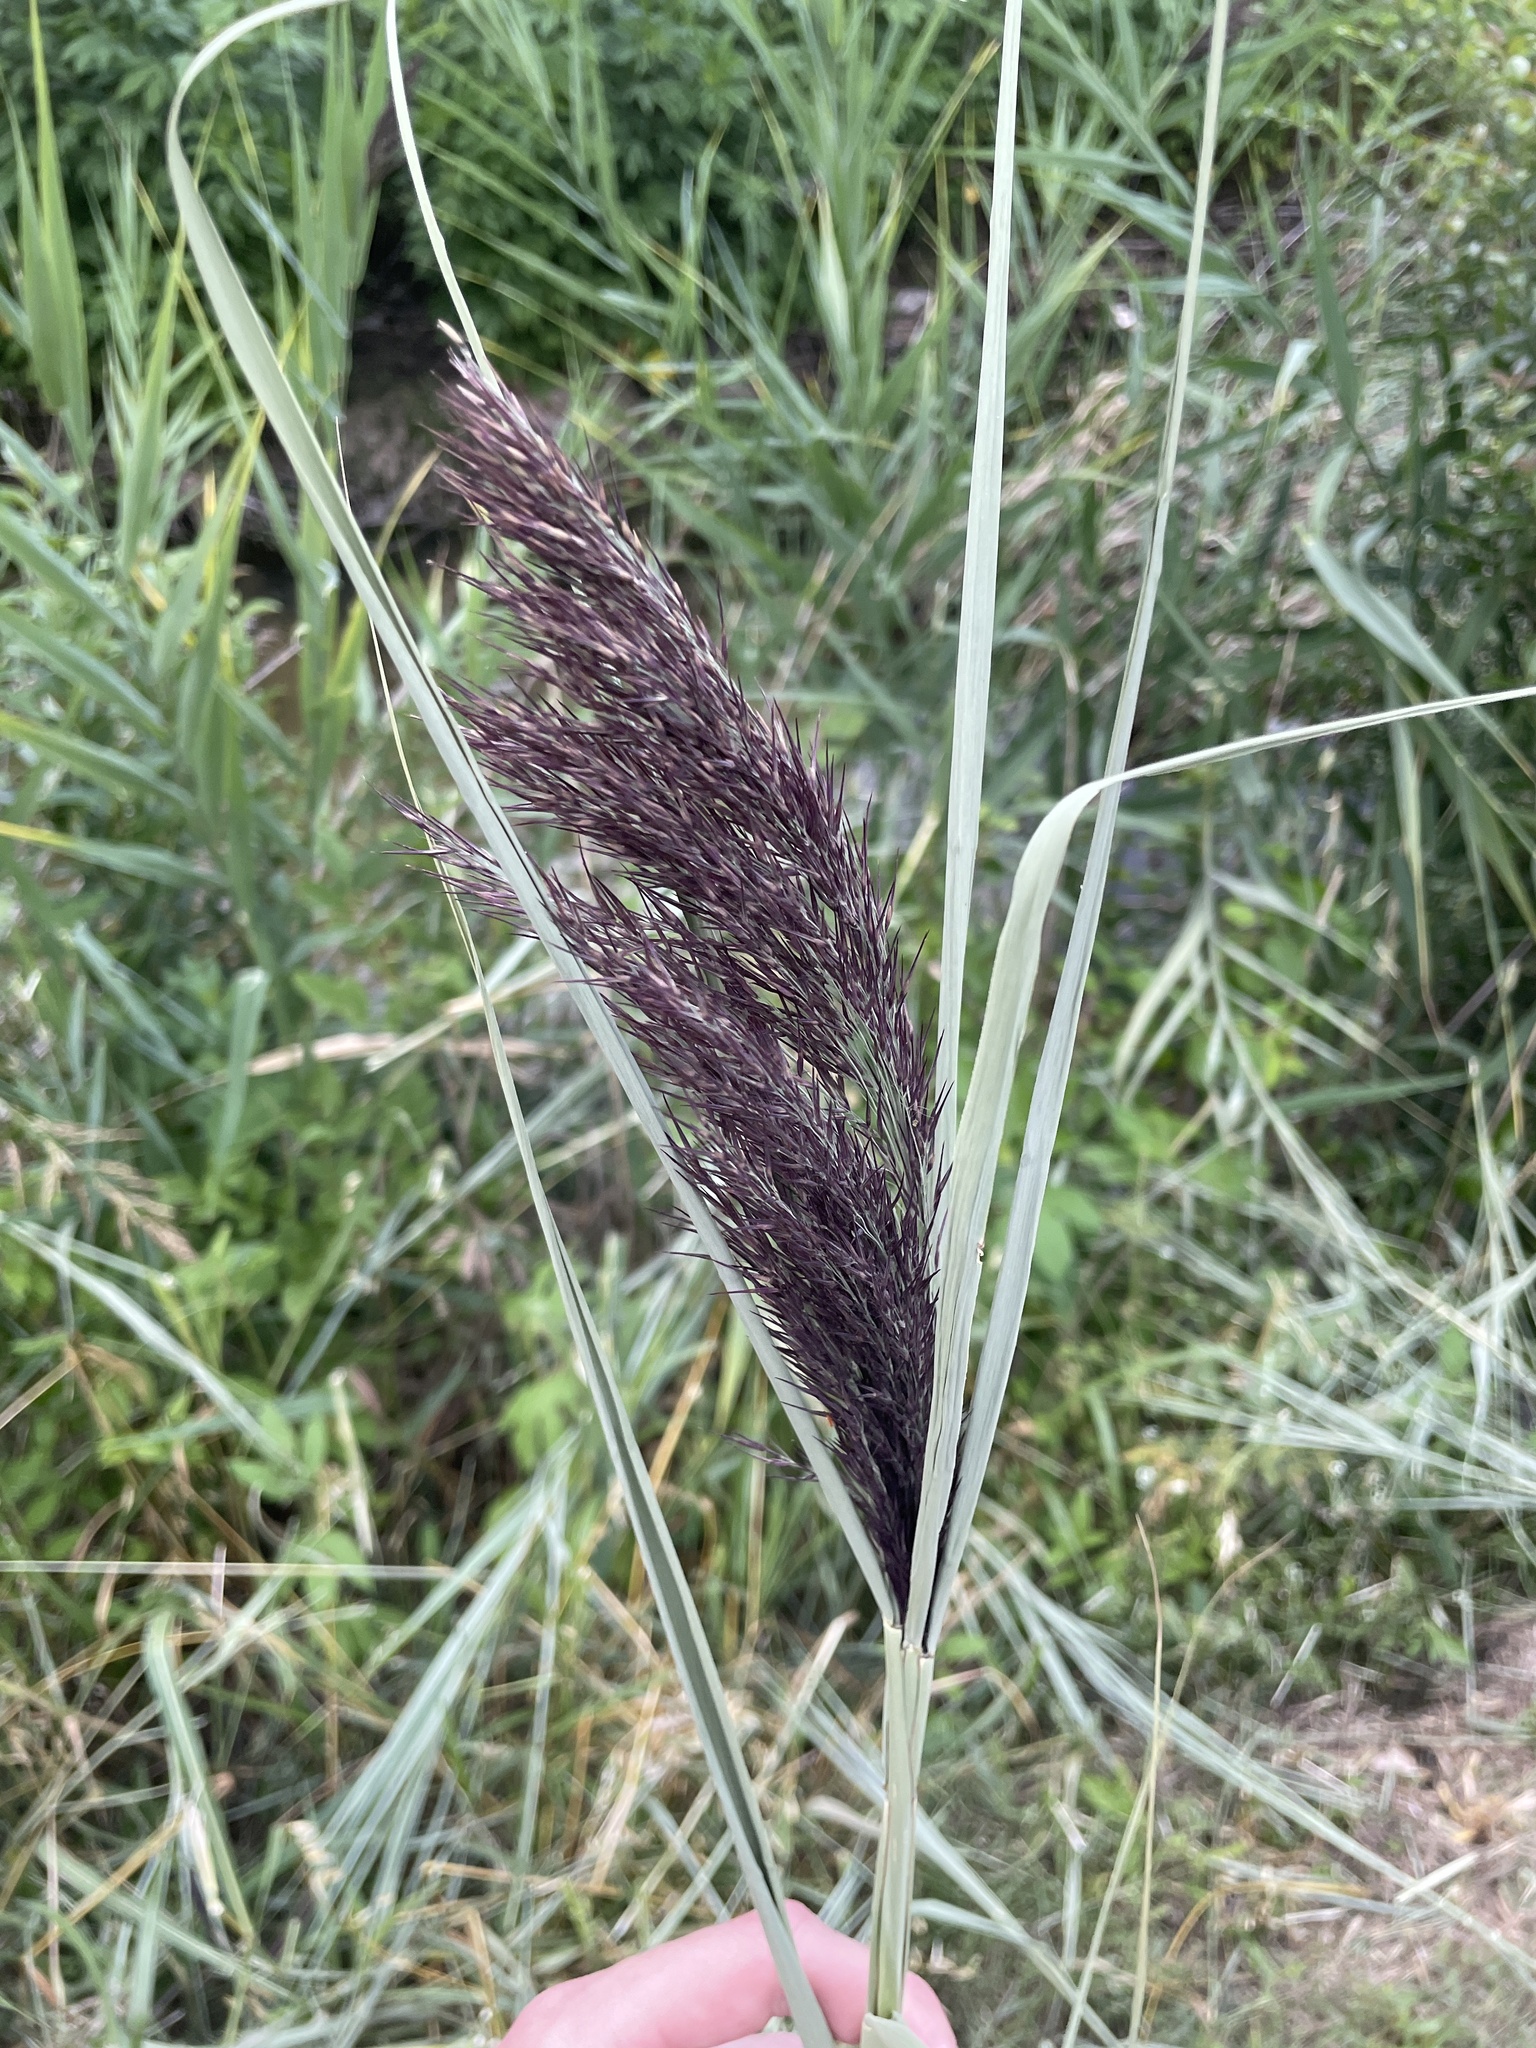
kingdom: Plantae
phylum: Tracheophyta
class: Liliopsida
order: Poales
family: Poaceae
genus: Phragmites
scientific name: Phragmites australis
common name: Common reed
